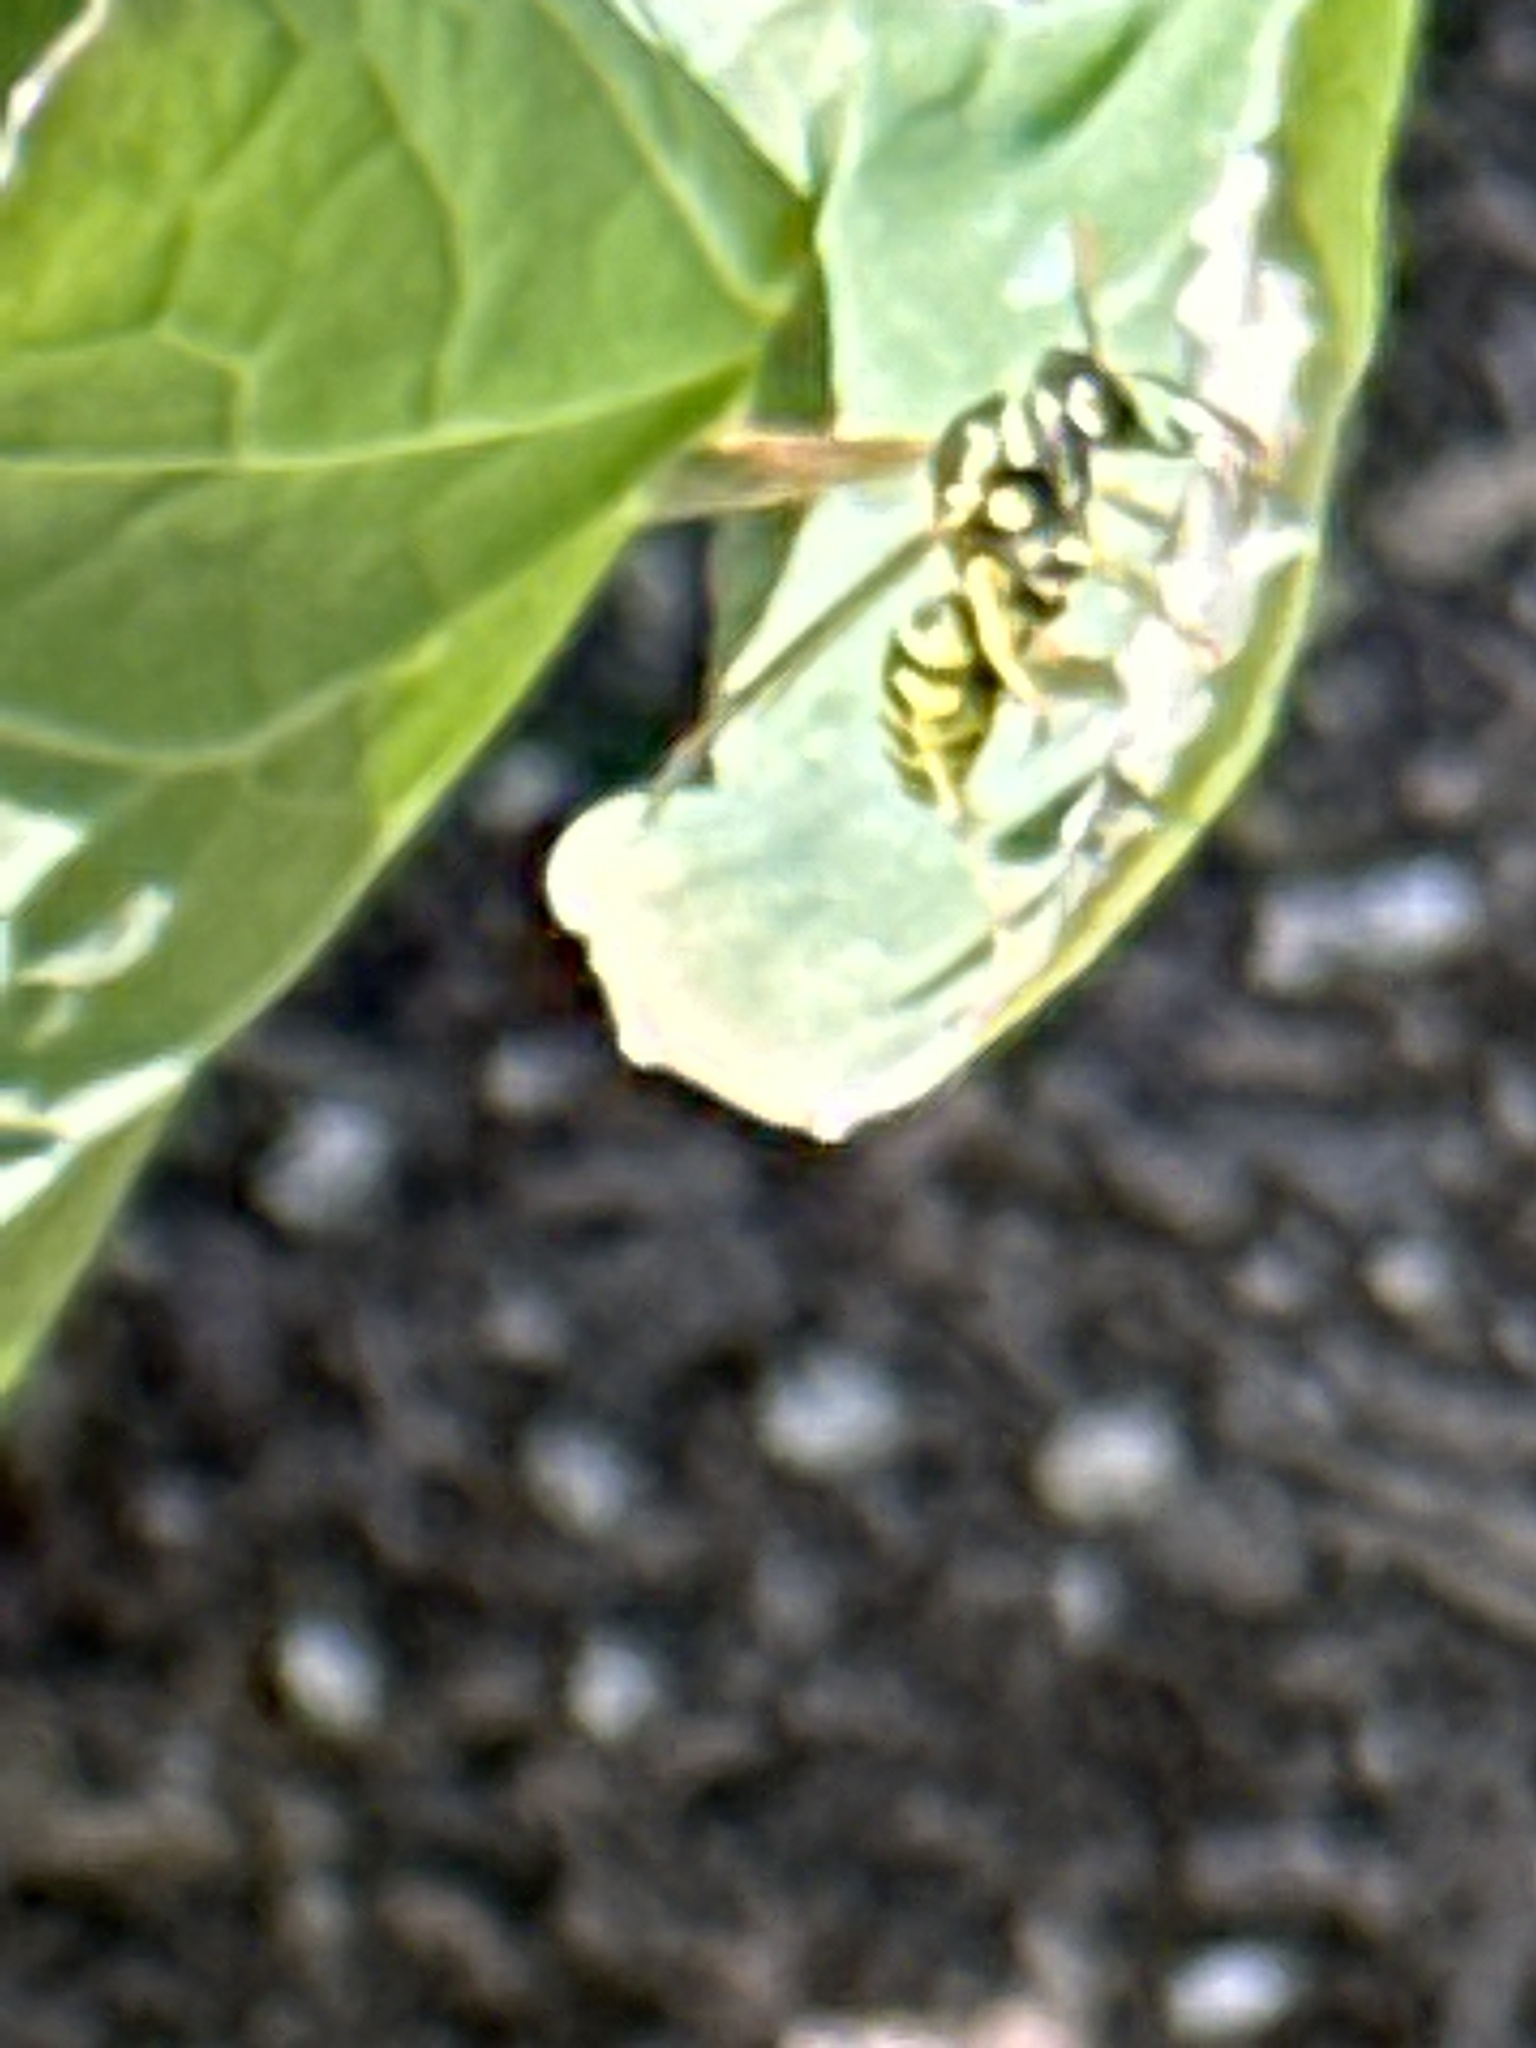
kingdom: Animalia
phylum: Arthropoda
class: Insecta
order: Hymenoptera
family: Eumenidae
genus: Polistes
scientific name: Polistes dominula
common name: Paper wasp
